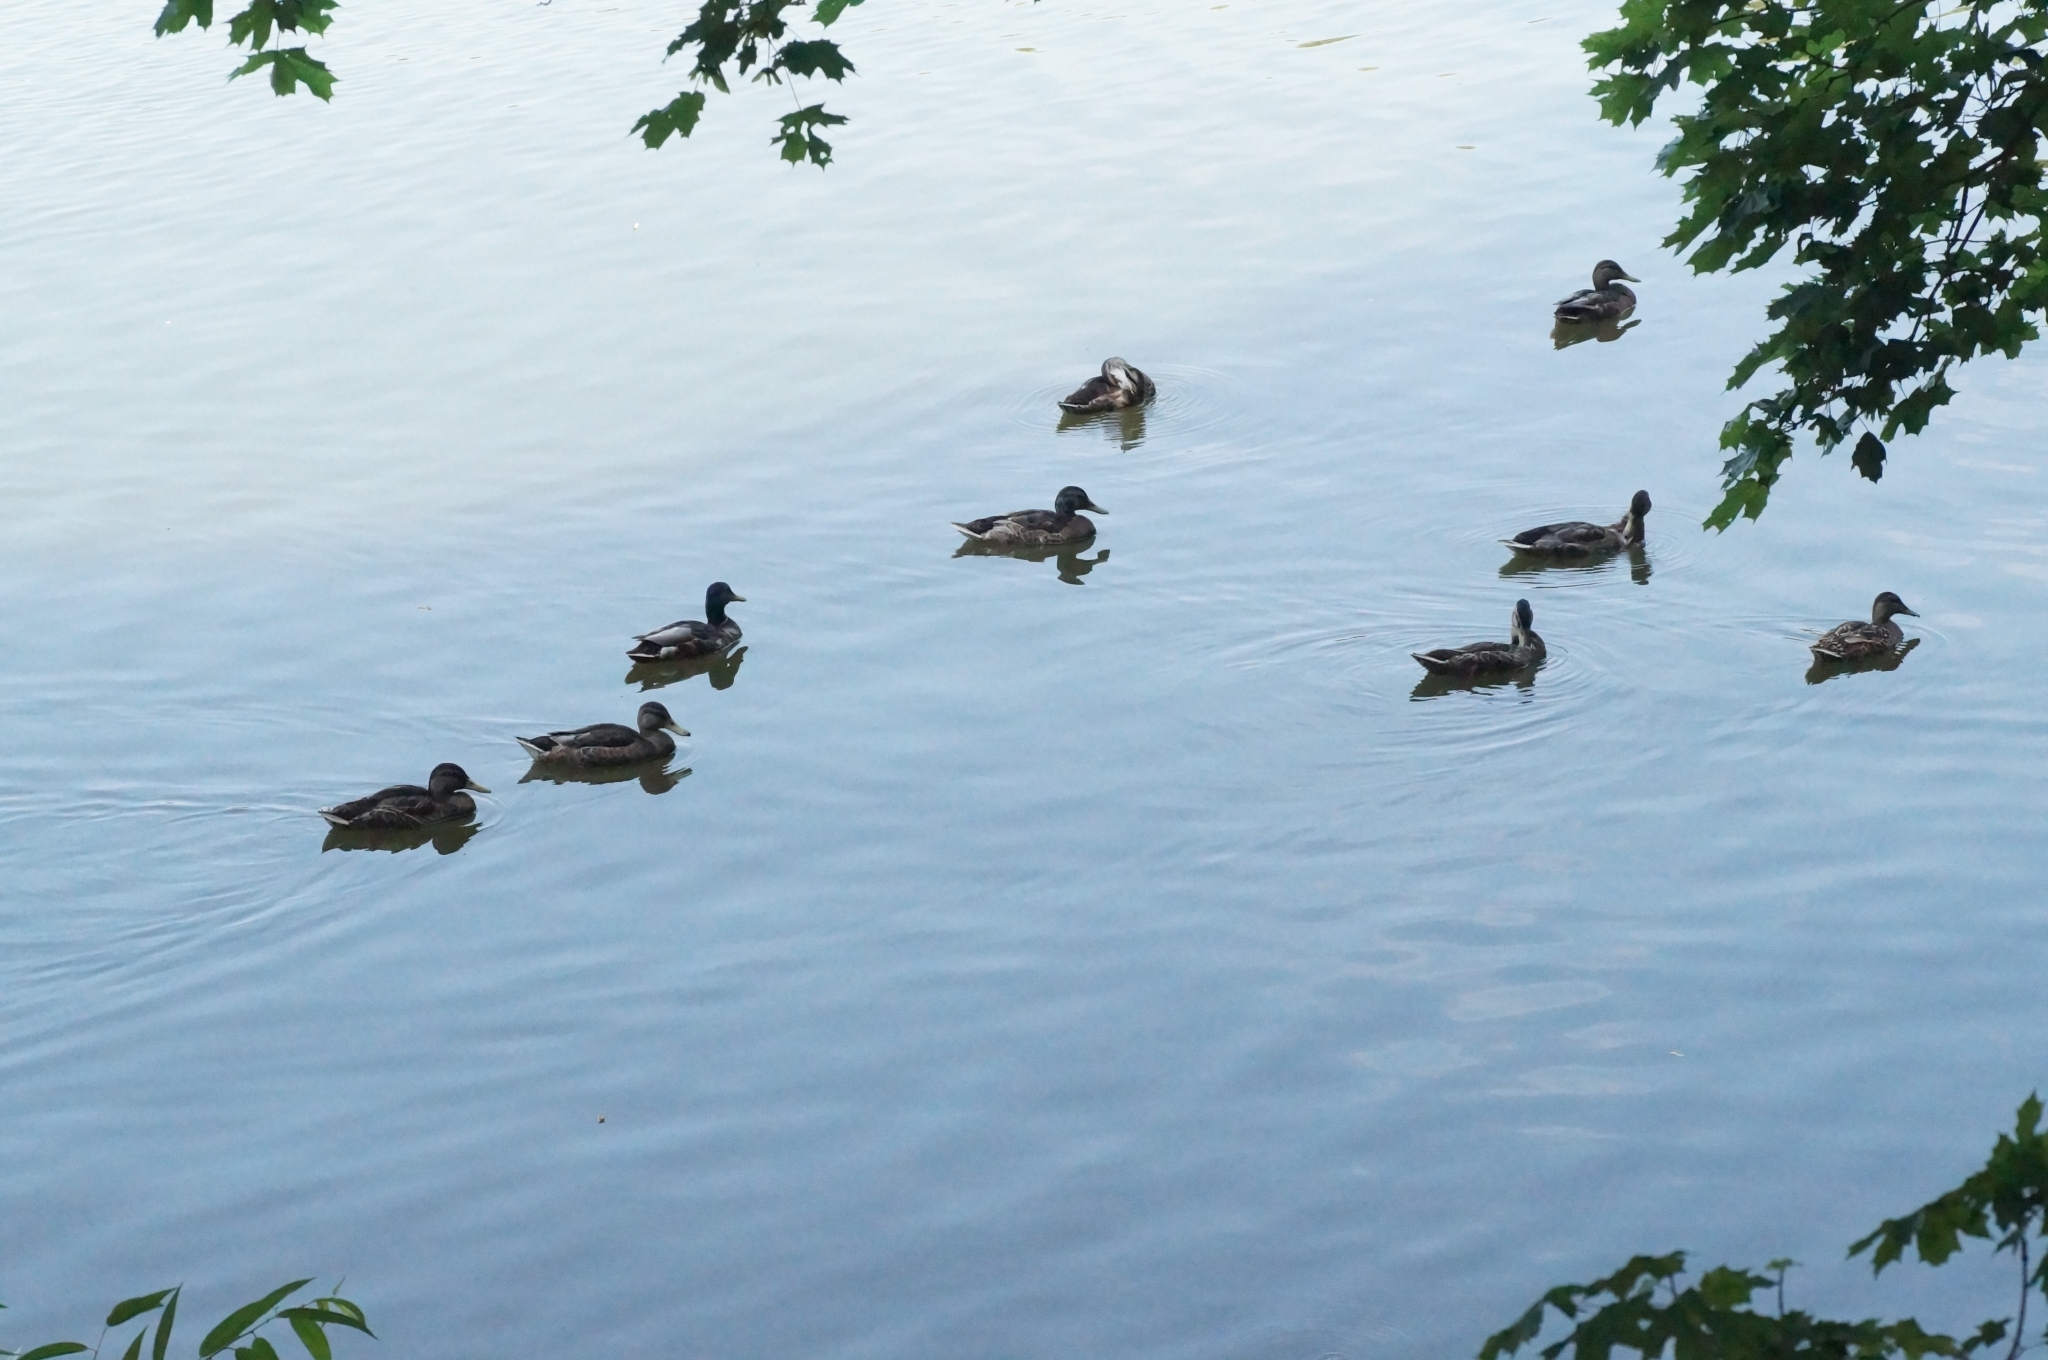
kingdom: Animalia
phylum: Chordata
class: Aves
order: Anseriformes
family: Anatidae
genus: Anas
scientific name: Anas platyrhynchos
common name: Mallard
